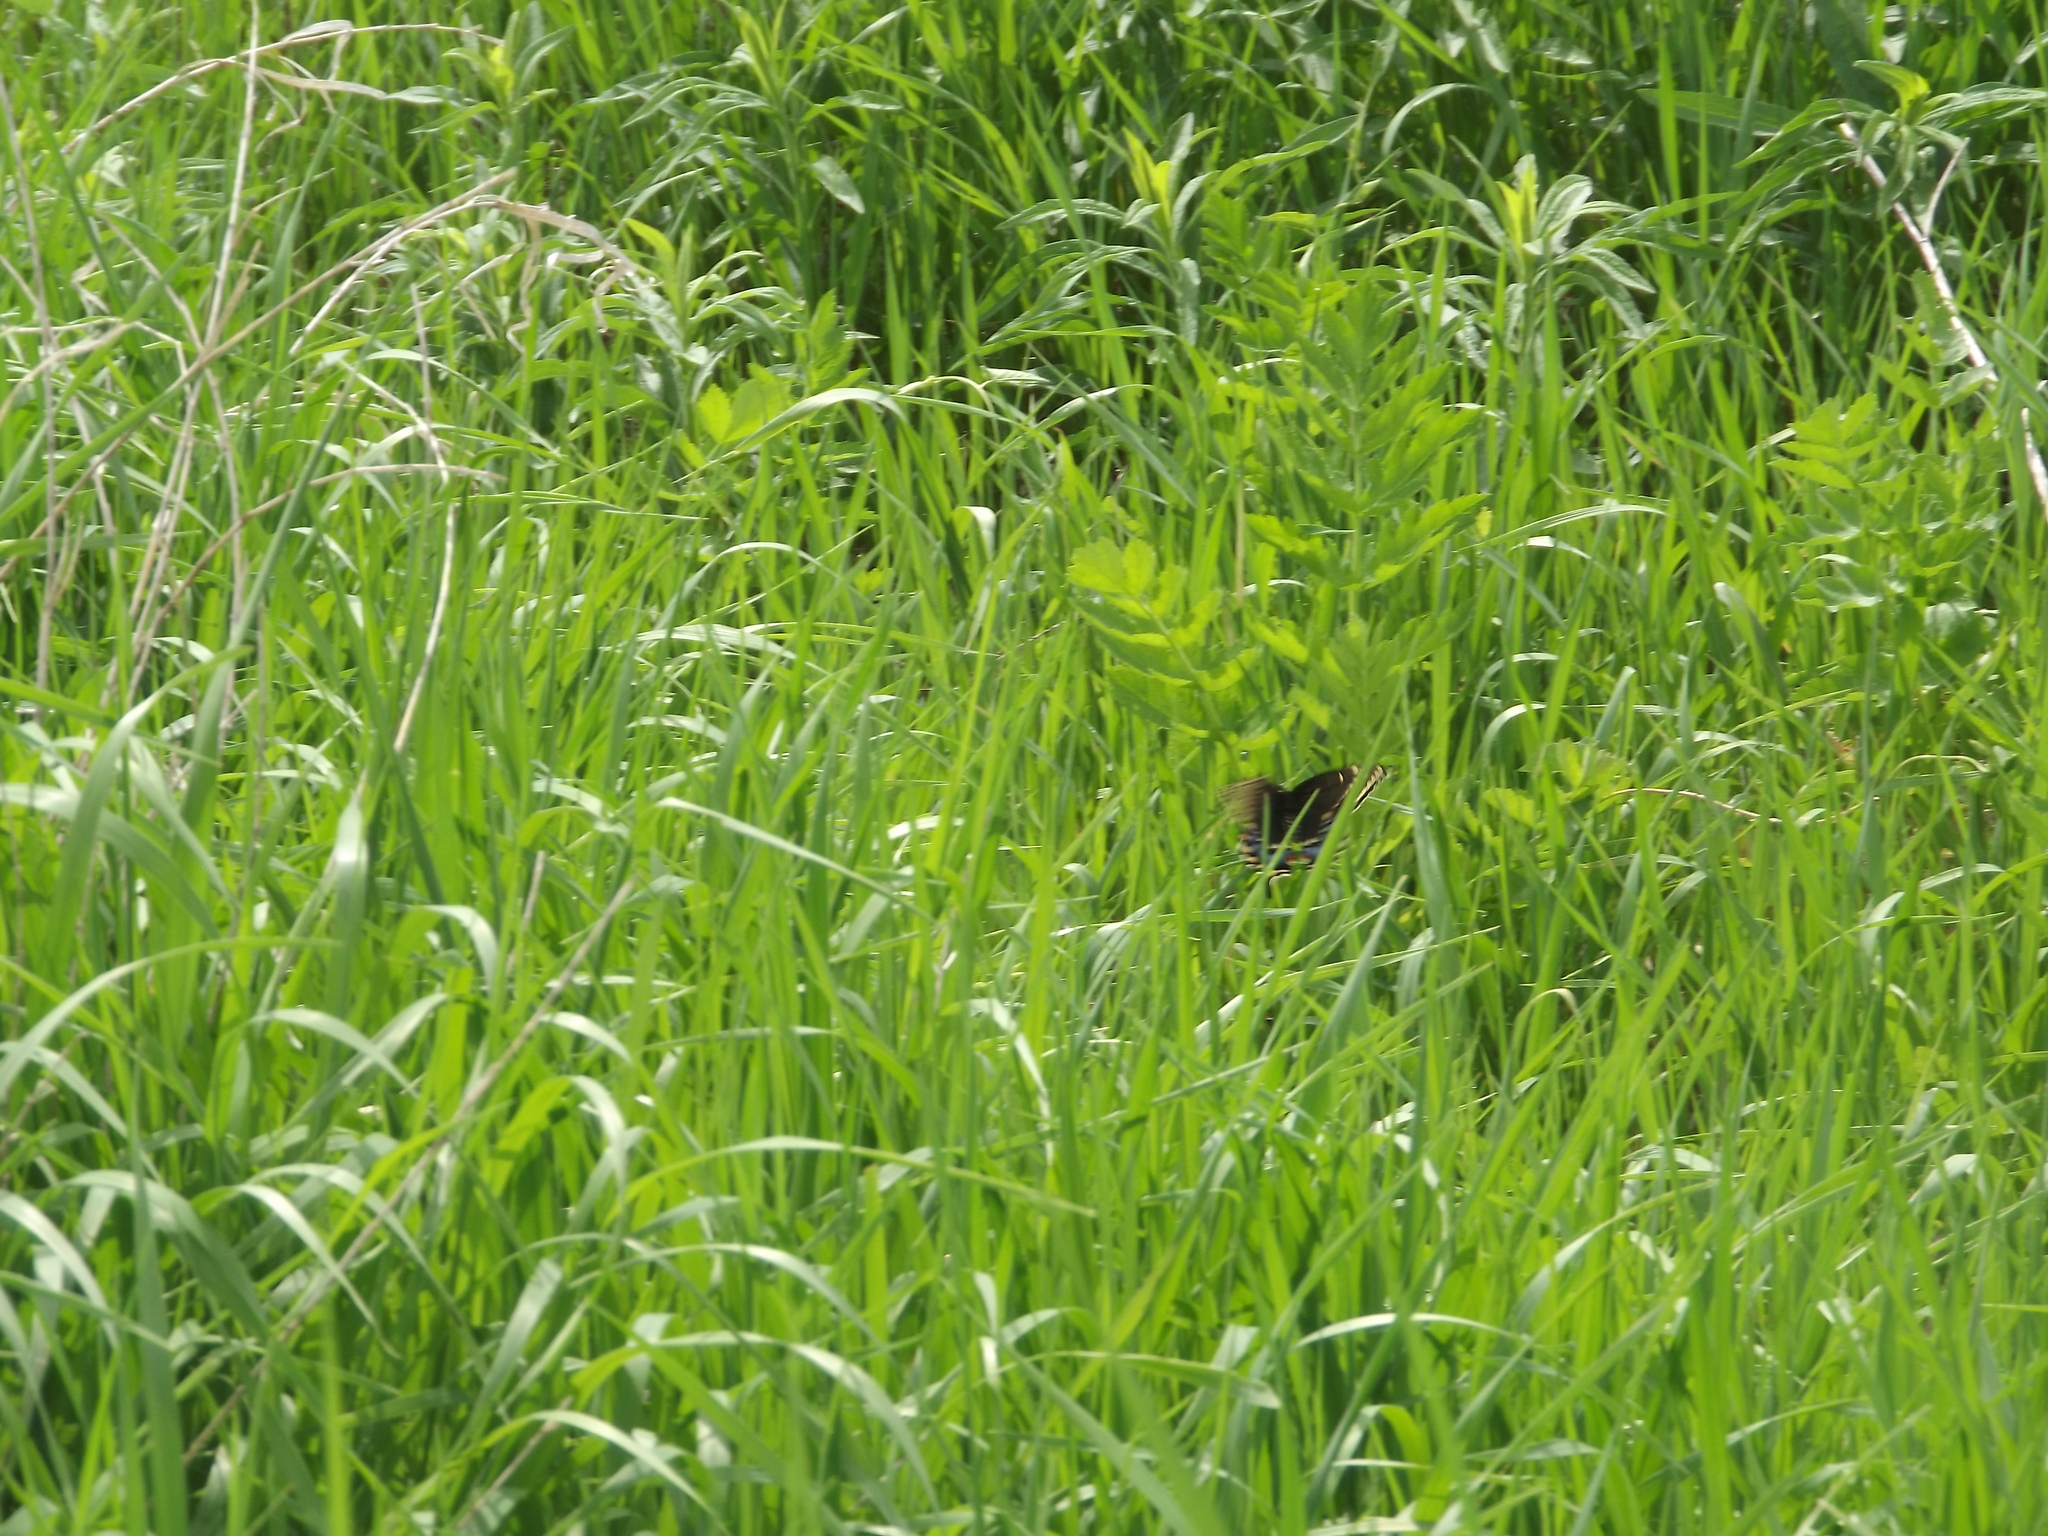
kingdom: Animalia
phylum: Arthropoda
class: Insecta
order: Lepidoptera
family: Papilionidae
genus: Papilio
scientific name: Papilio polyxenes
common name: Black swallowtail
